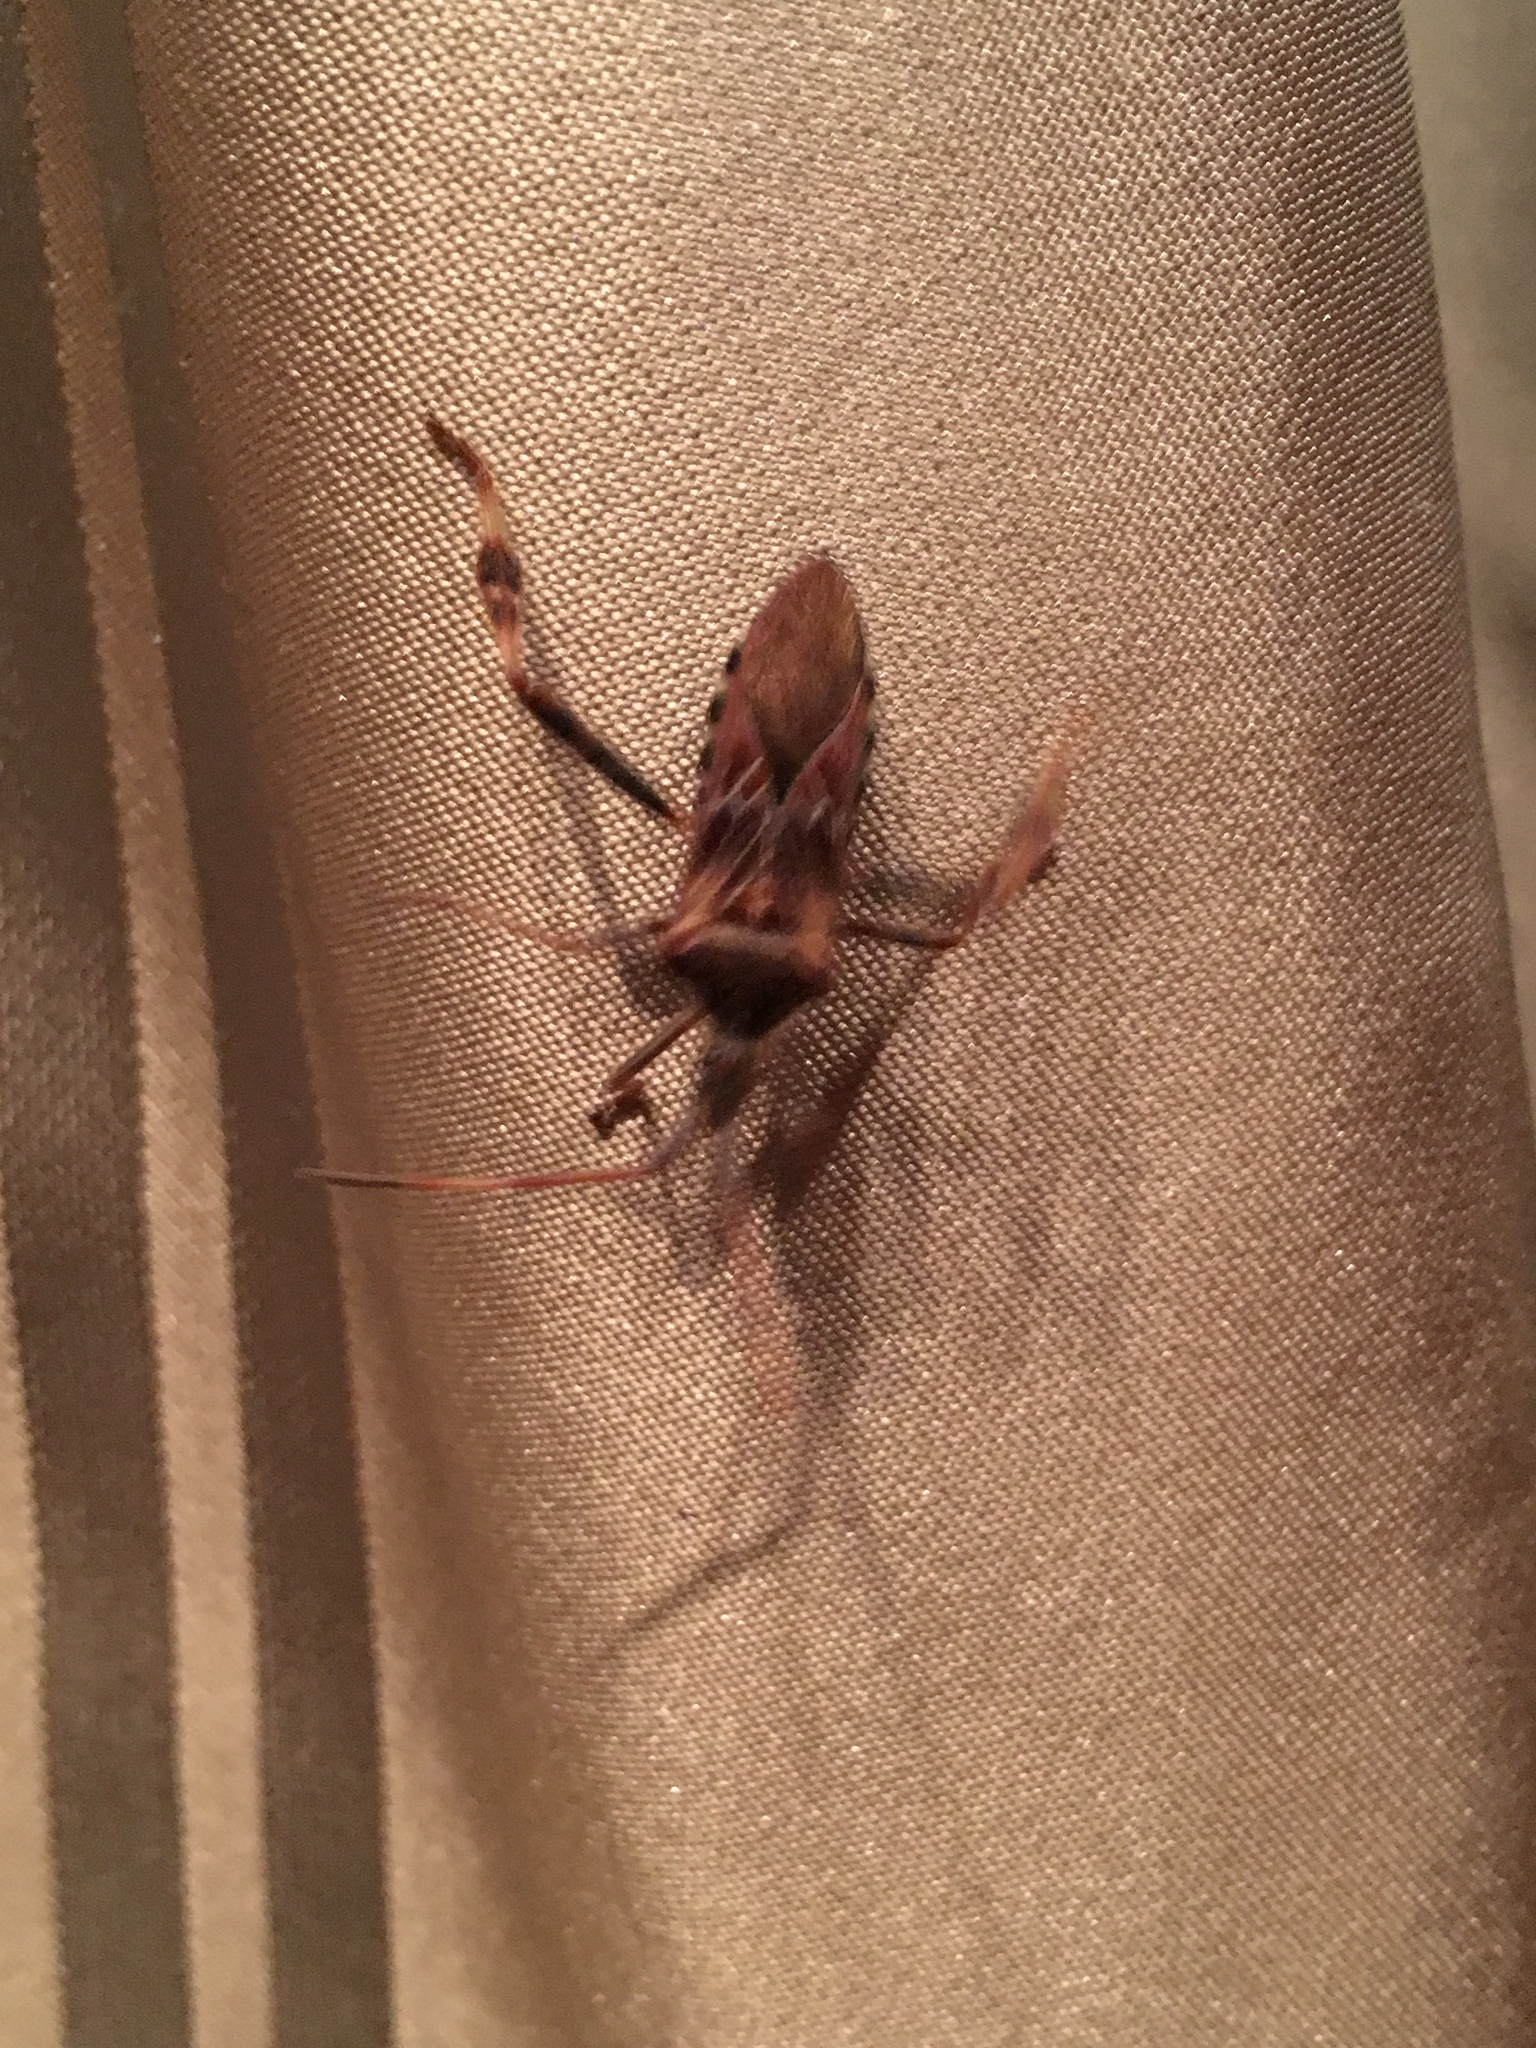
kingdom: Animalia
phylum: Arthropoda
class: Insecta
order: Hemiptera
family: Coreidae
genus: Leptoglossus
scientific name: Leptoglossus occidentalis
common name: Western conifer-seed bug
